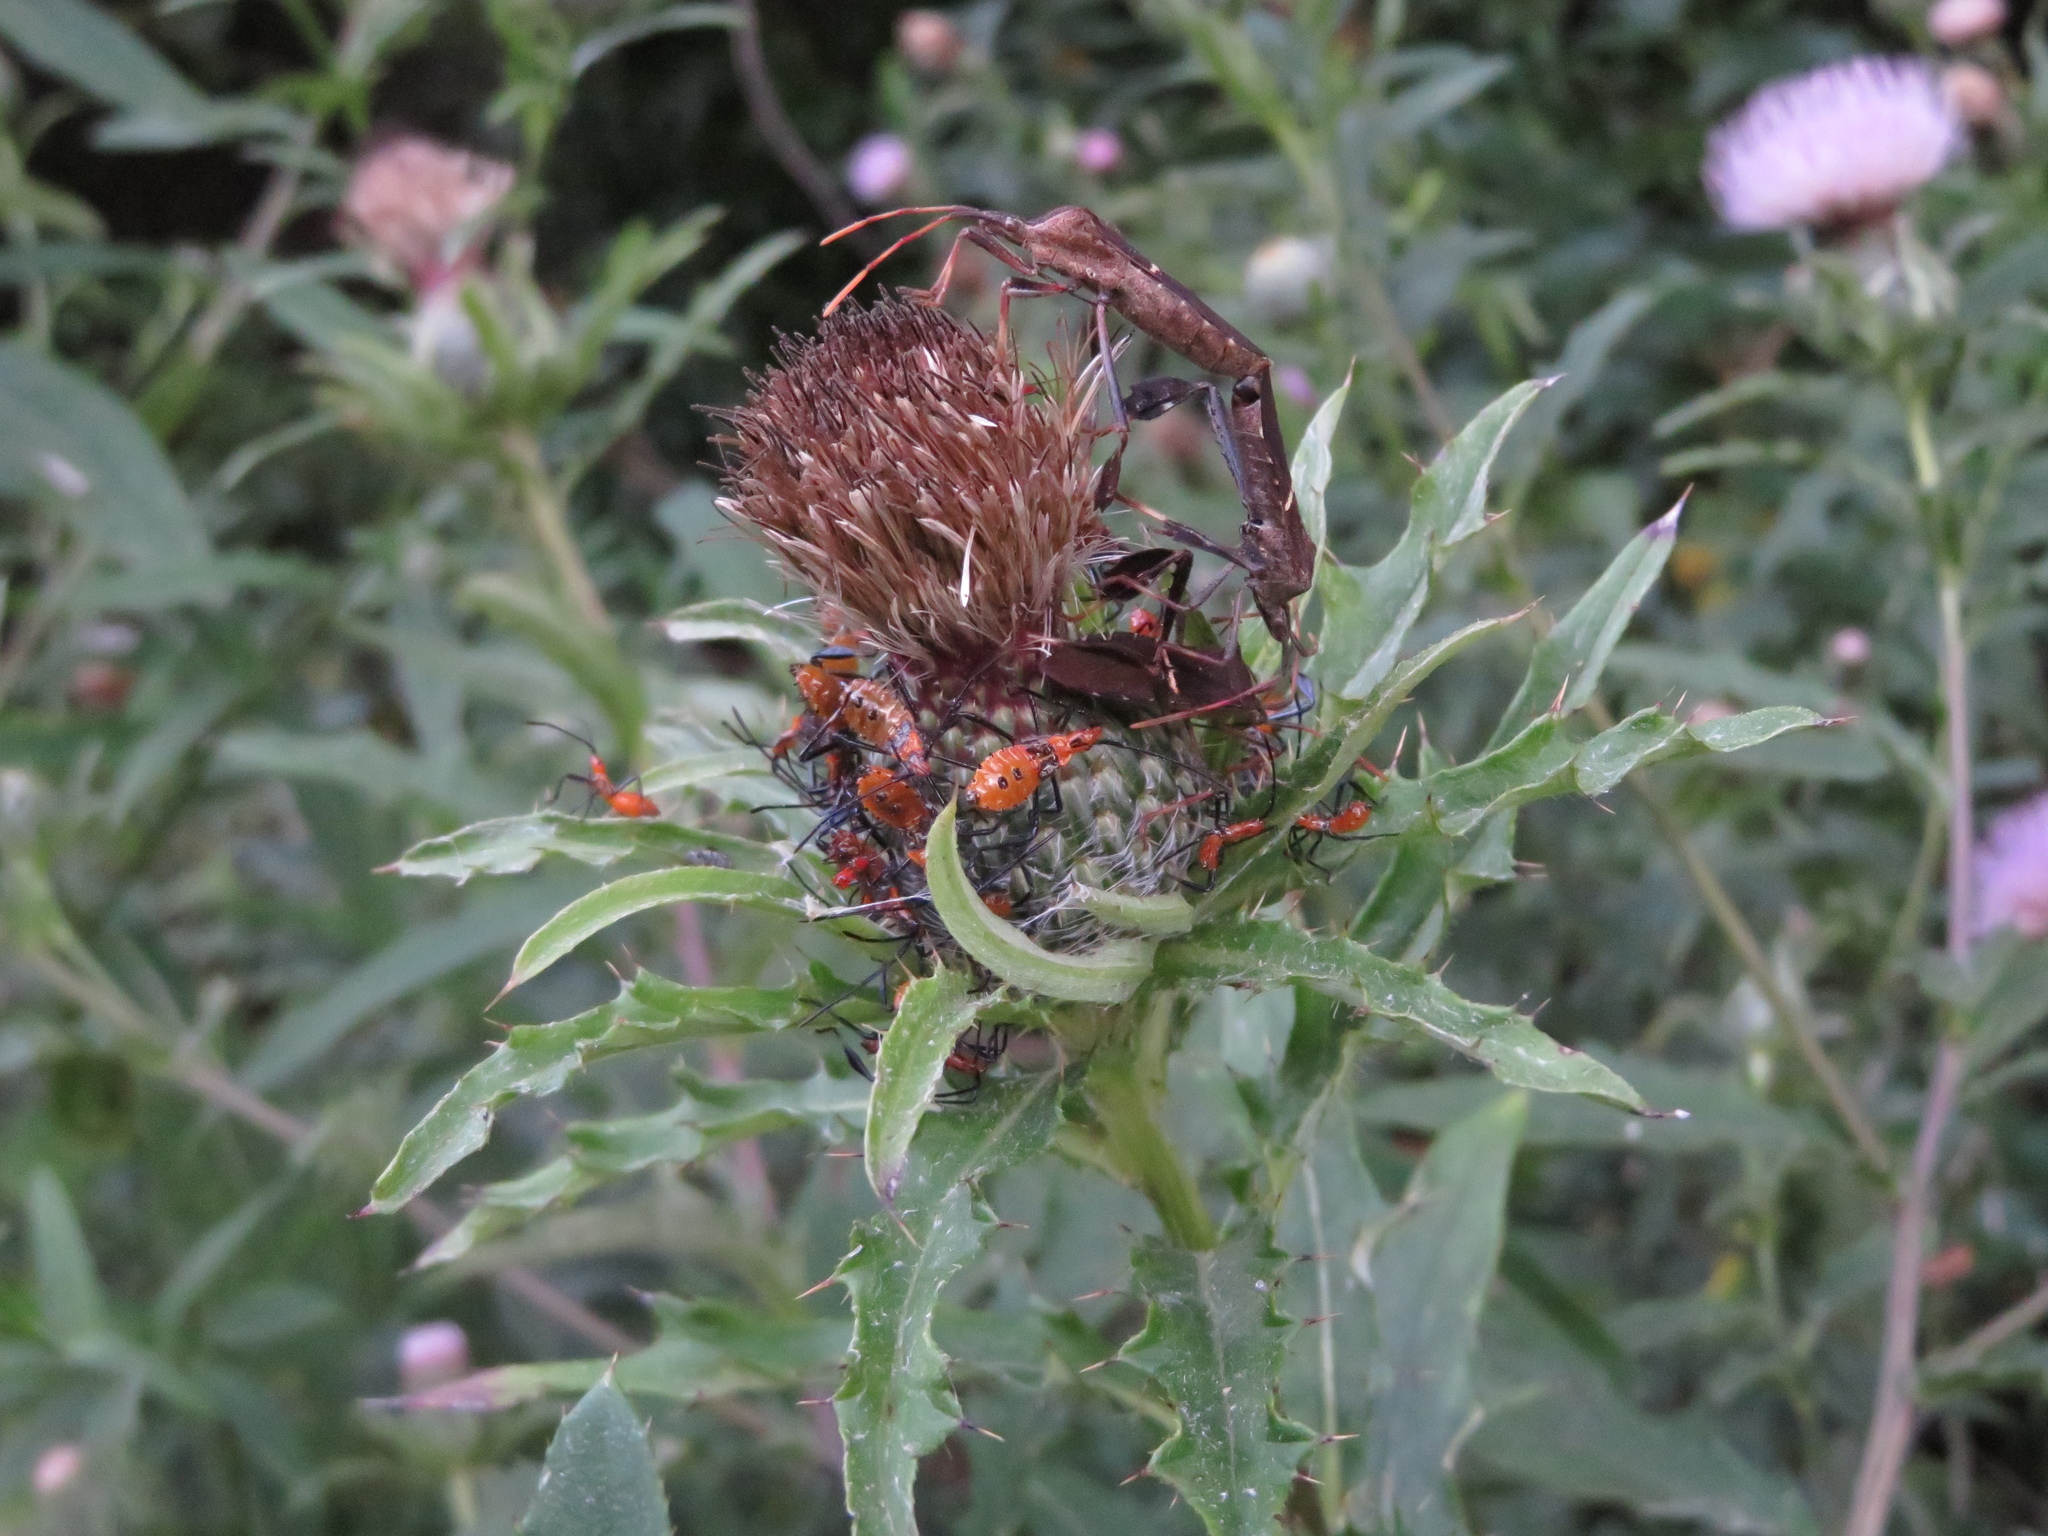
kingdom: Animalia
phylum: Arthropoda
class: Insecta
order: Hemiptera
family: Coreidae
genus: Leptoglossus
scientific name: Leptoglossus phyllopus
